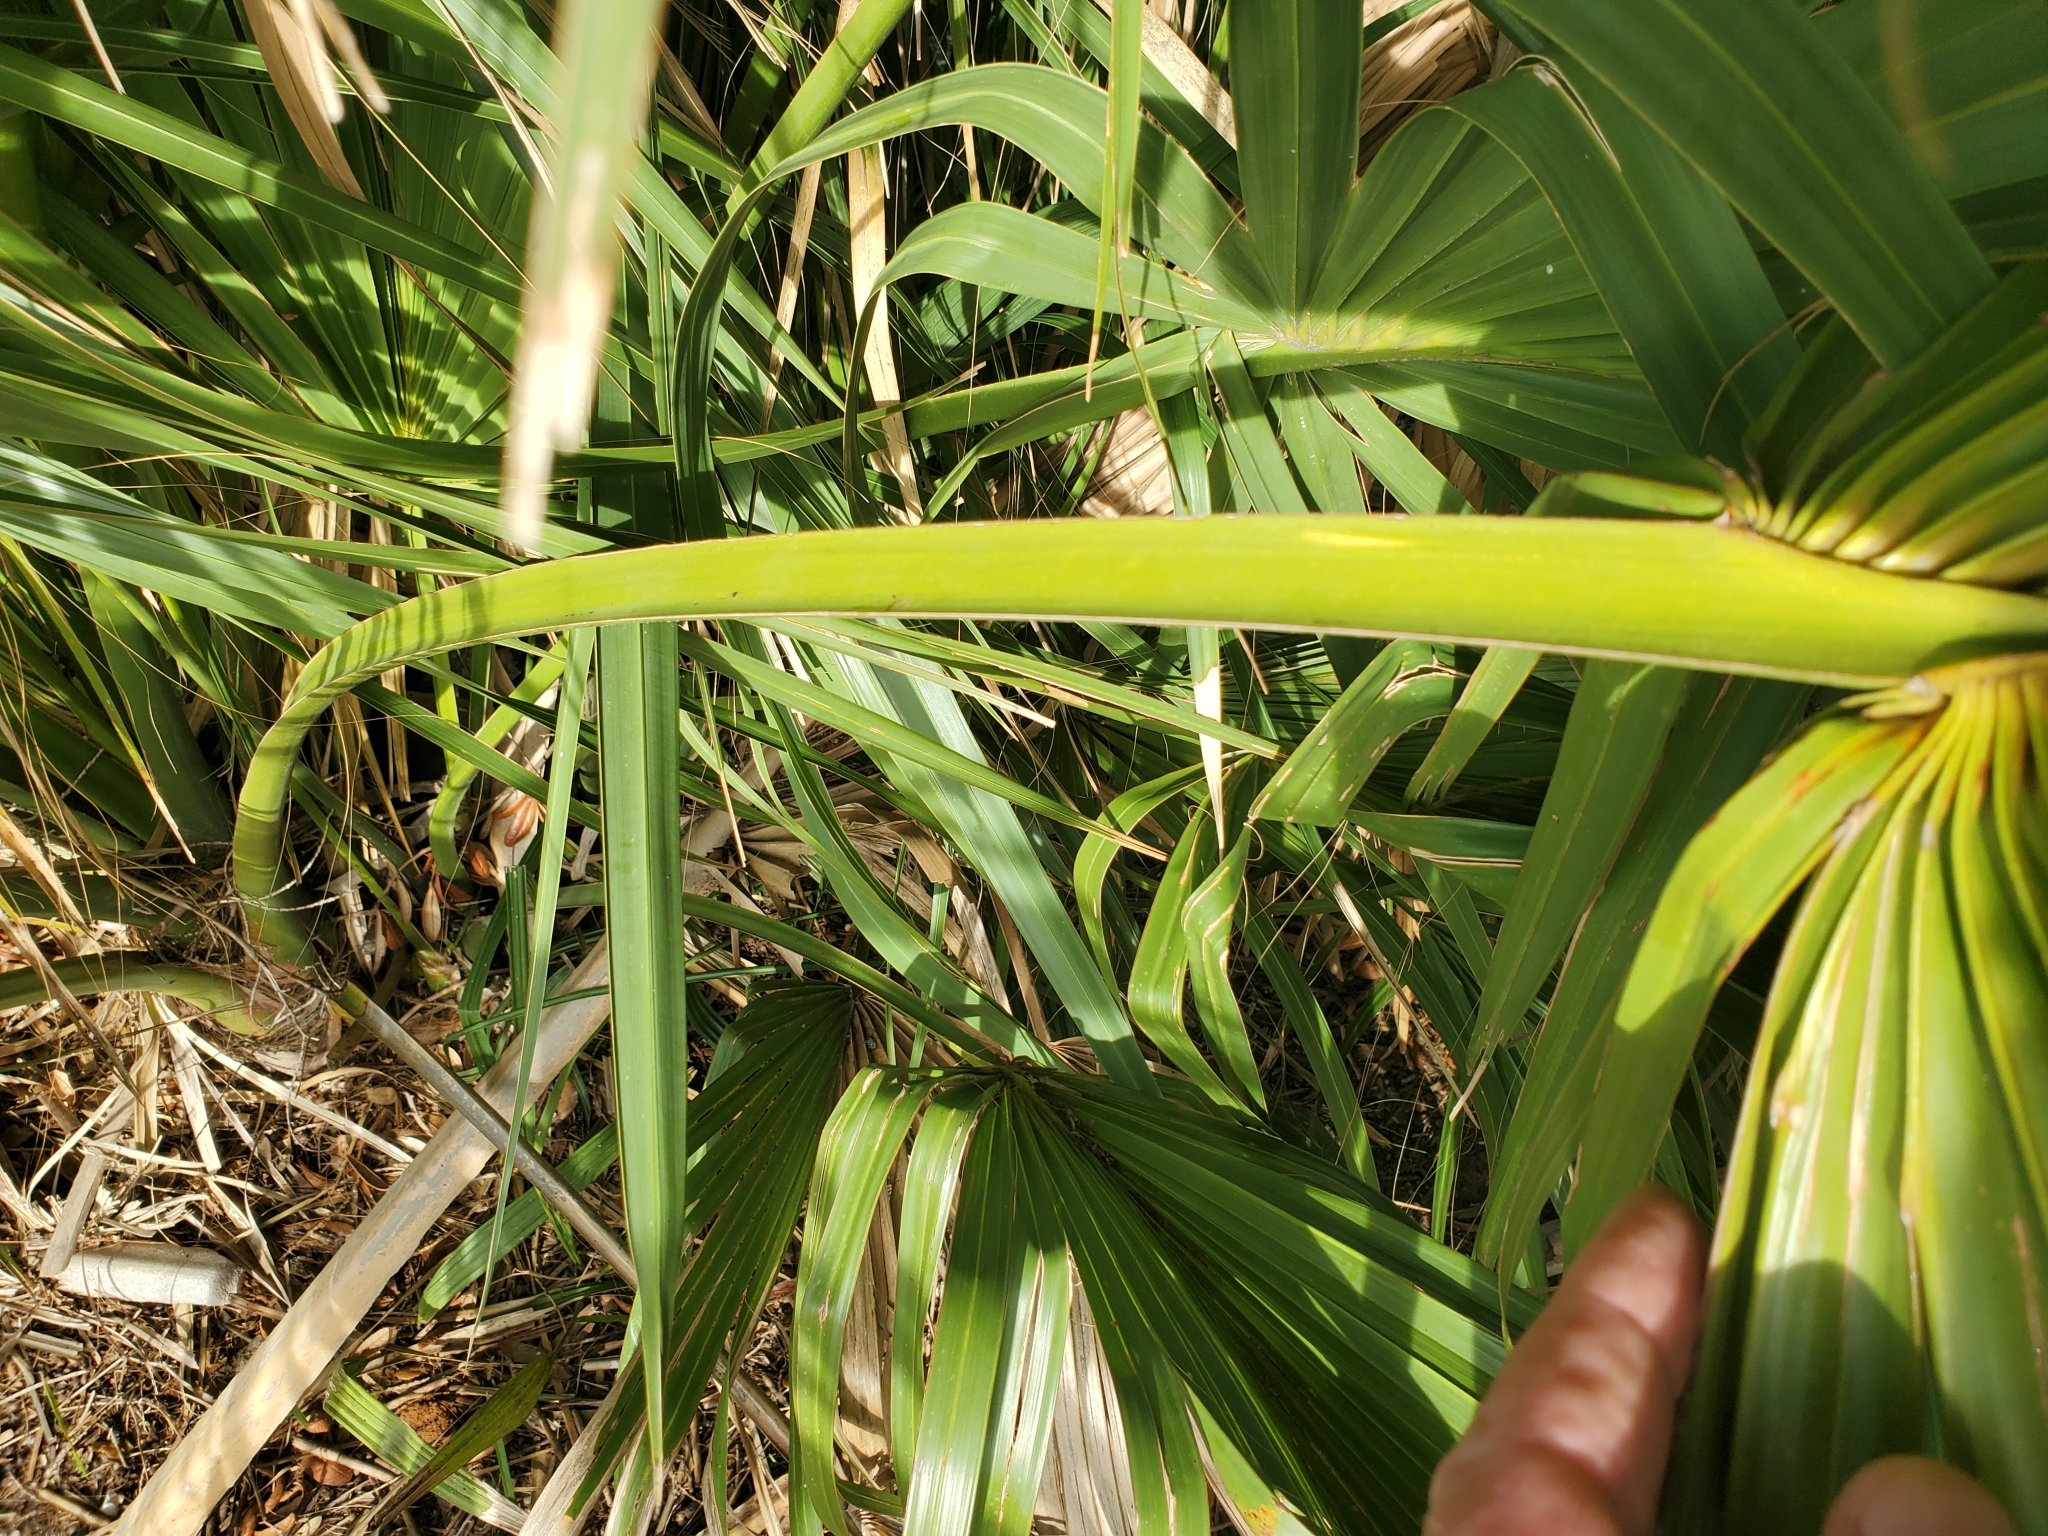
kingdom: Plantae
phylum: Tracheophyta
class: Liliopsida
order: Arecales
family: Arecaceae
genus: Sabal
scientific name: Sabal palmetto
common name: Blue palmetto
